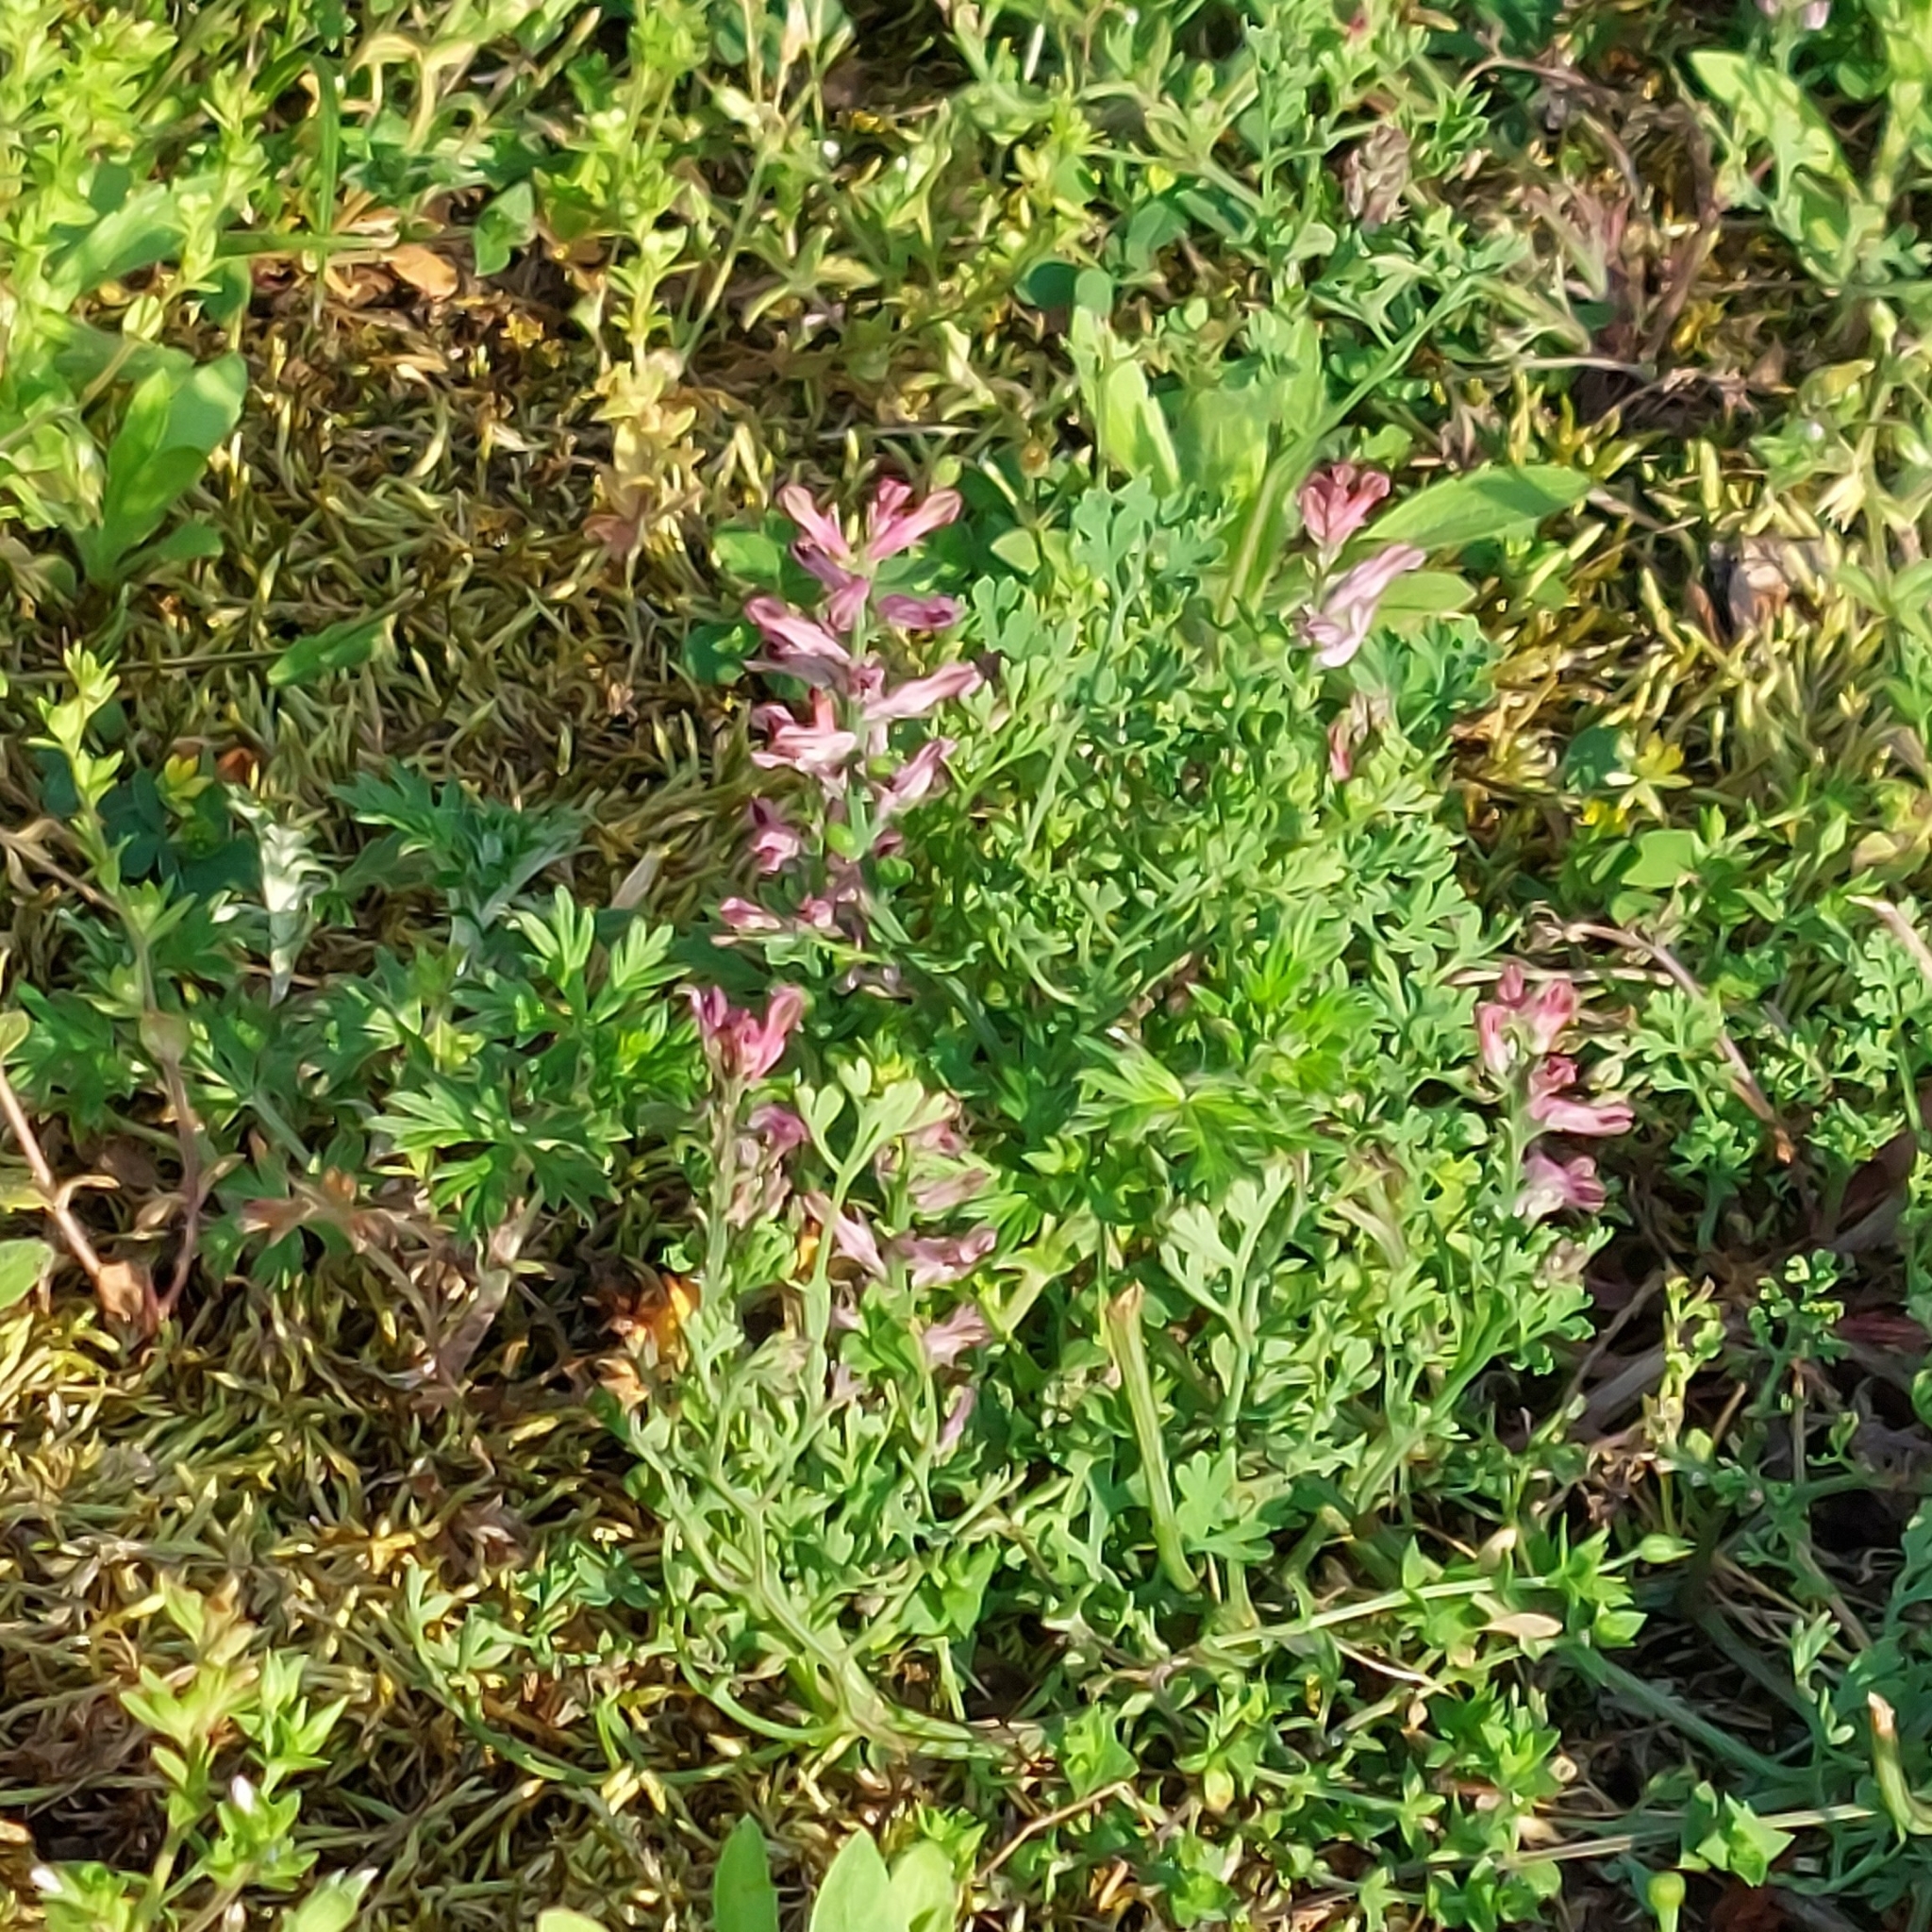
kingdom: Plantae
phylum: Tracheophyta
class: Magnoliopsida
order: Ranunculales
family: Papaveraceae
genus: Fumaria
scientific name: Fumaria officinalis
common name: Common fumitory
